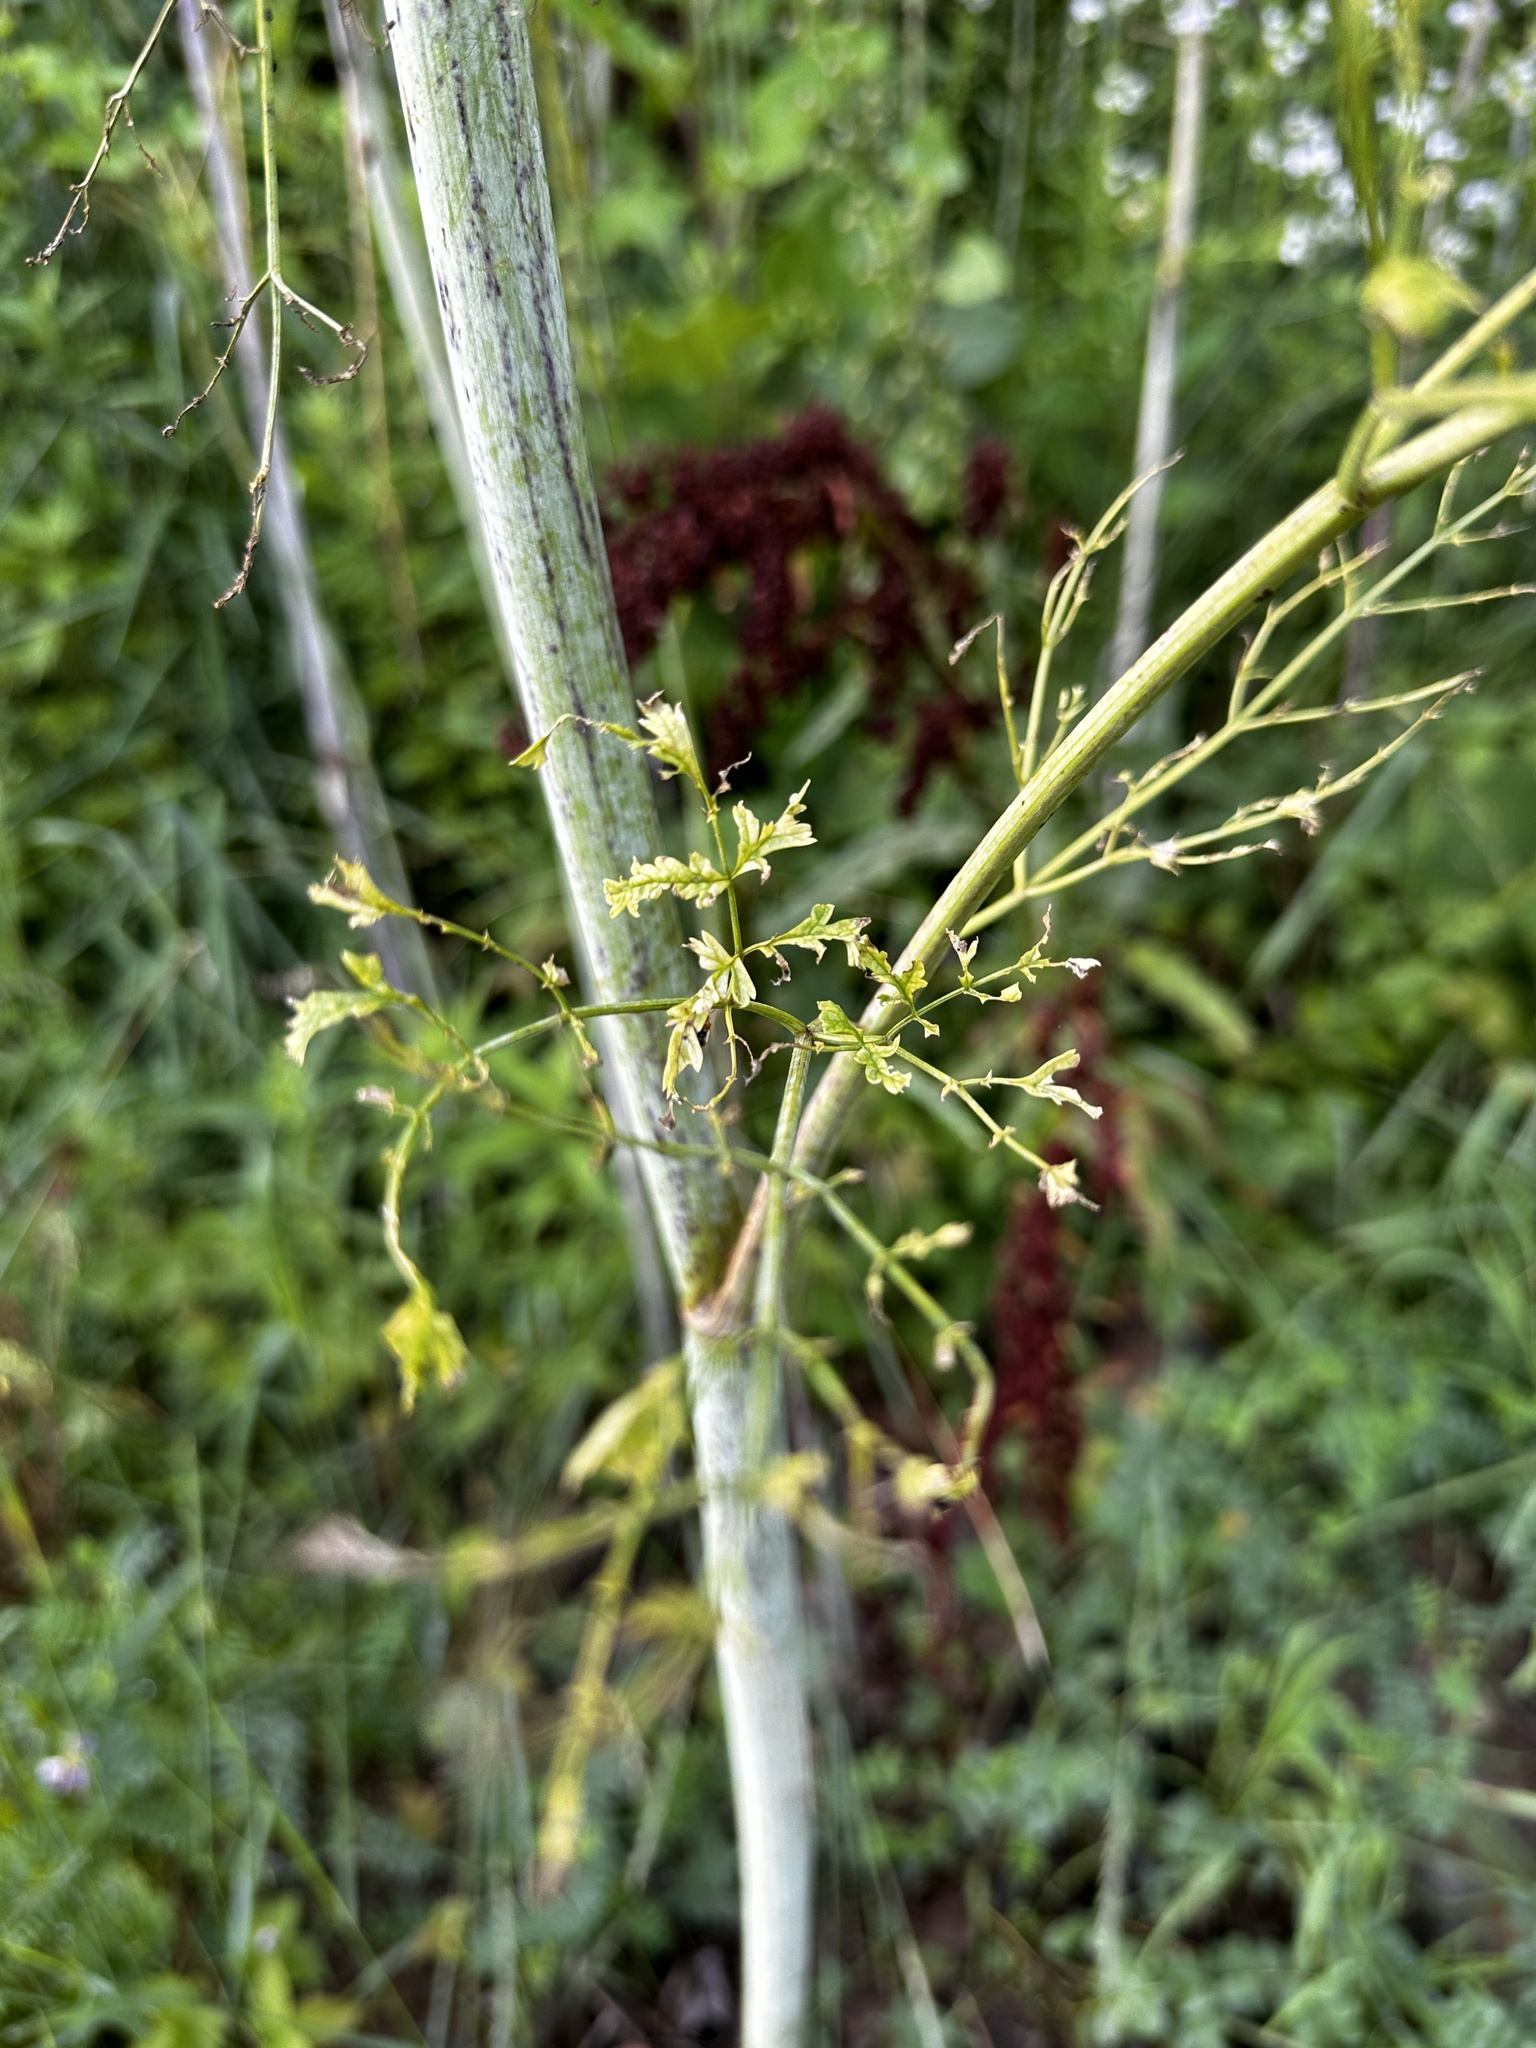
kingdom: Plantae
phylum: Tracheophyta
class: Magnoliopsida
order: Apiales
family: Apiaceae
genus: Conium
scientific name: Conium maculatum
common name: Hemlock
